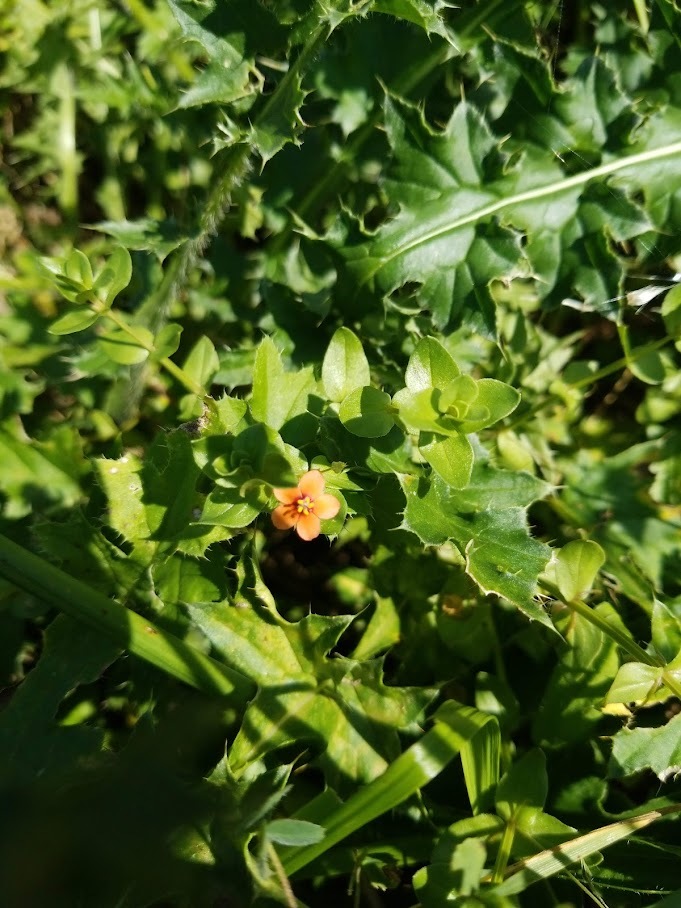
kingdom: Plantae
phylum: Tracheophyta
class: Magnoliopsida
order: Ericales
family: Primulaceae
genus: Lysimachia
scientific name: Lysimachia arvensis
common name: Scarlet pimpernel
